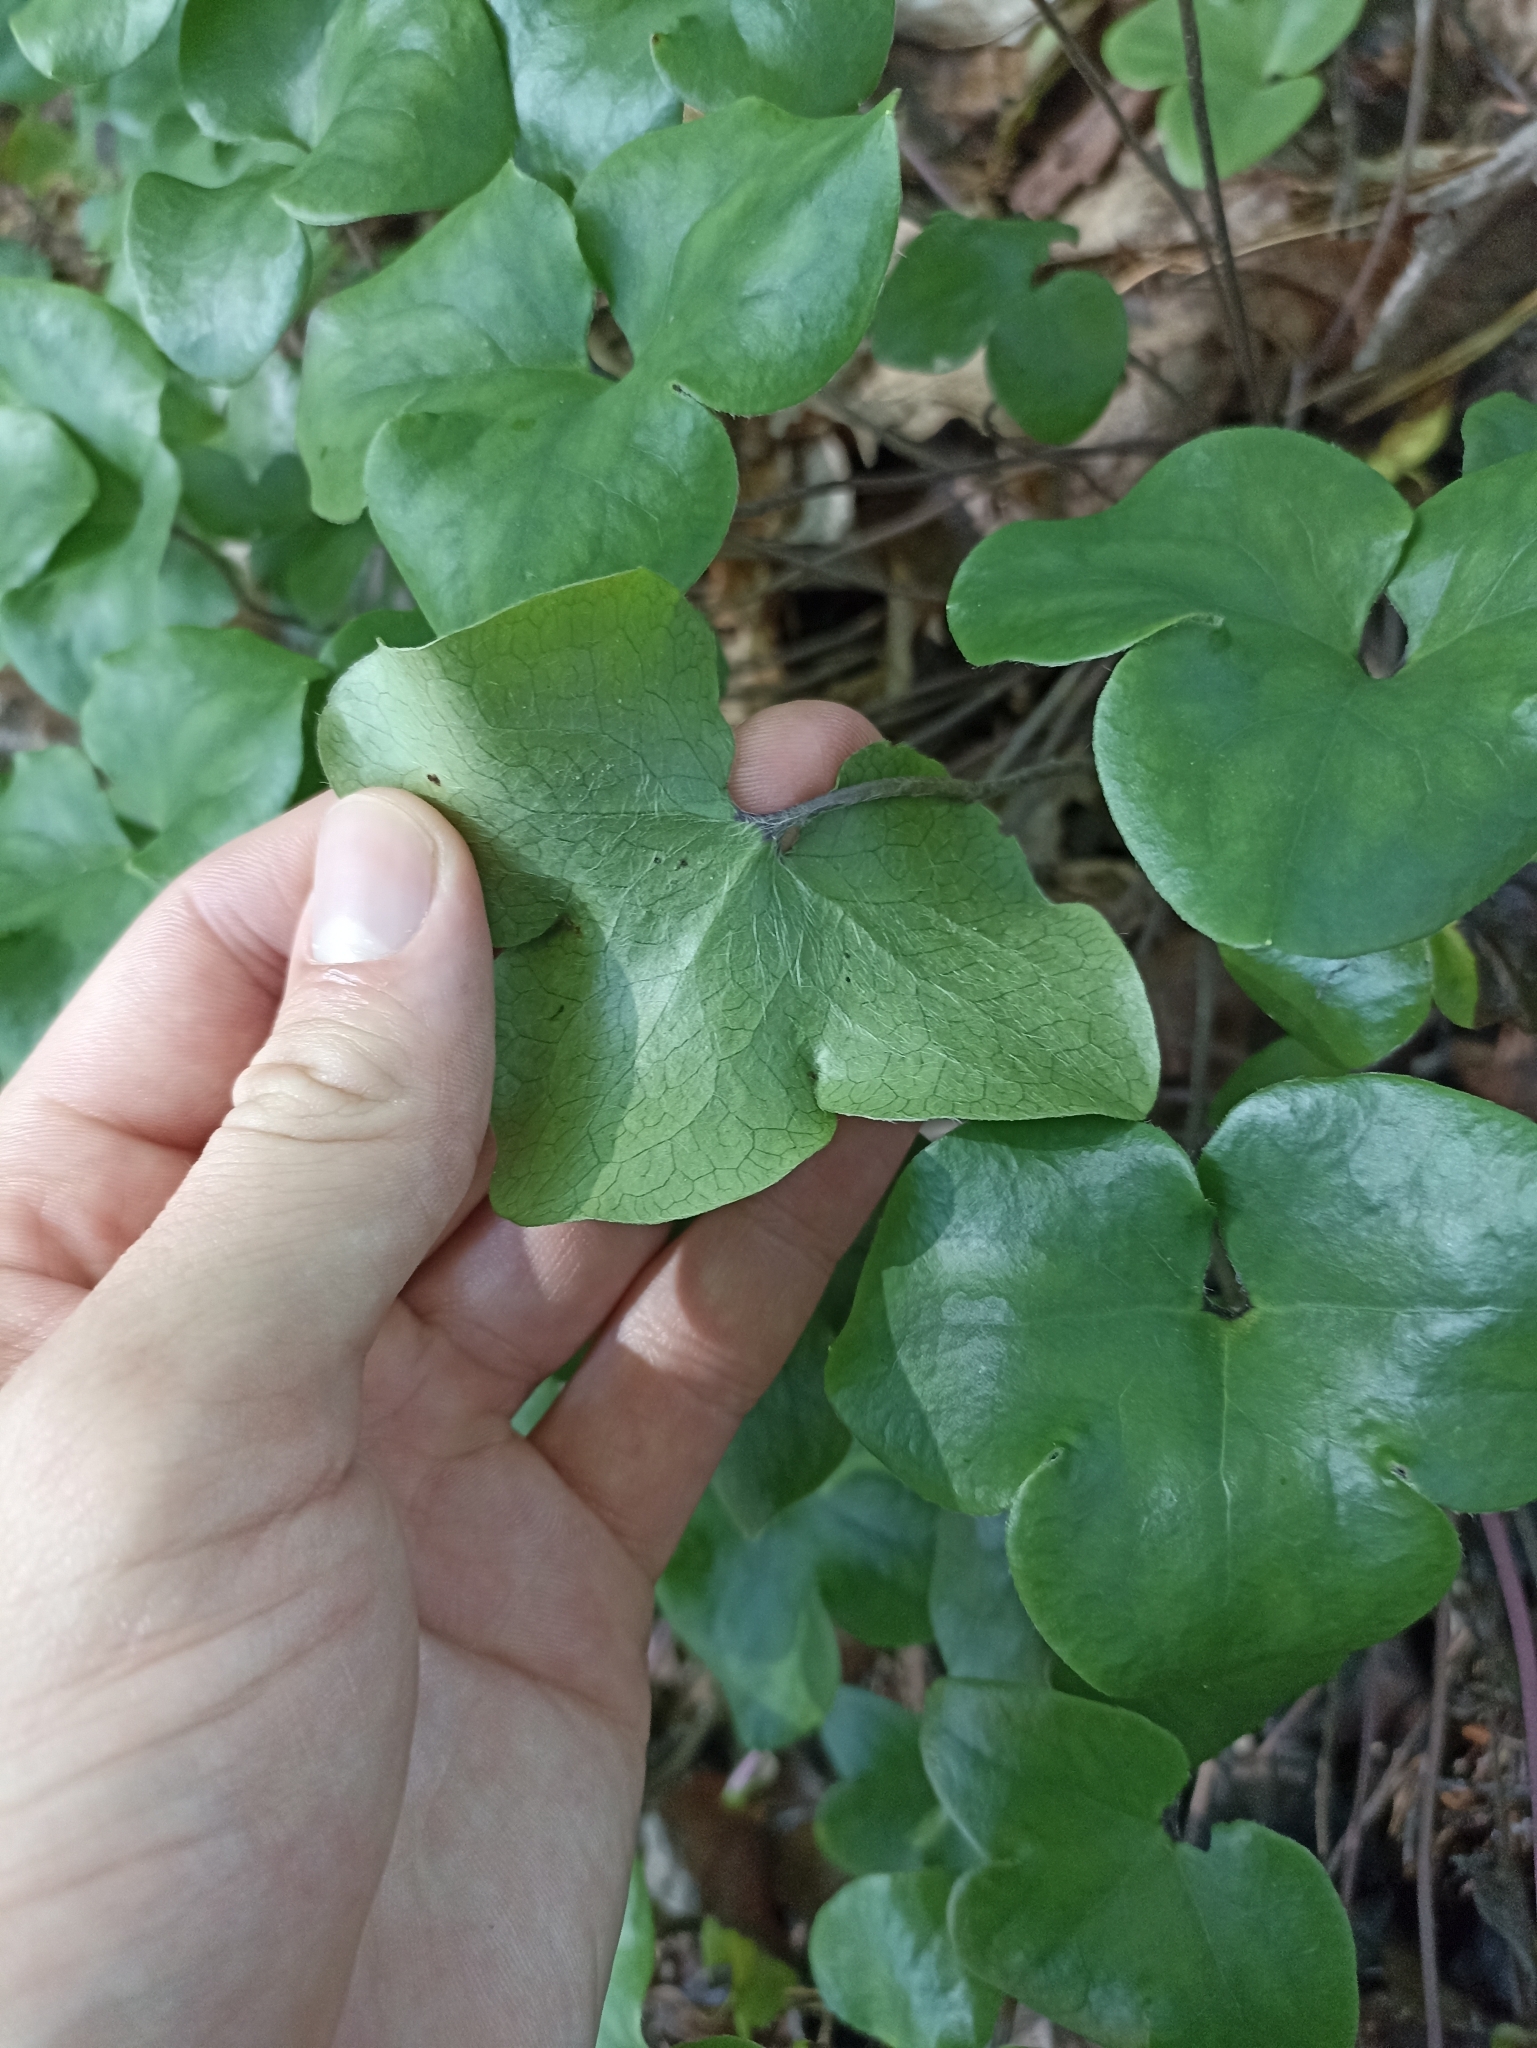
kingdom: Plantae
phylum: Tracheophyta
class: Magnoliopsida
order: Ranunculales
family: Ranunculaceae
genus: Hepatica
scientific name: Hepatica nobilis
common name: Liverleaf
